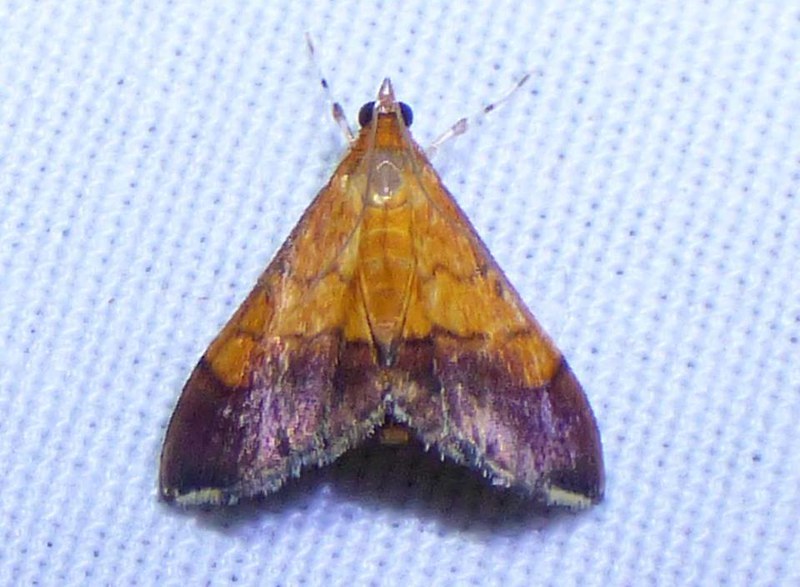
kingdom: Animalia
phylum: Arthropoda
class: Insecta
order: Lepidoptera
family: Crambidae
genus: Pyrausta
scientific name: Pyrausta bicoloralis
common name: Bicolored pyrausta moth
